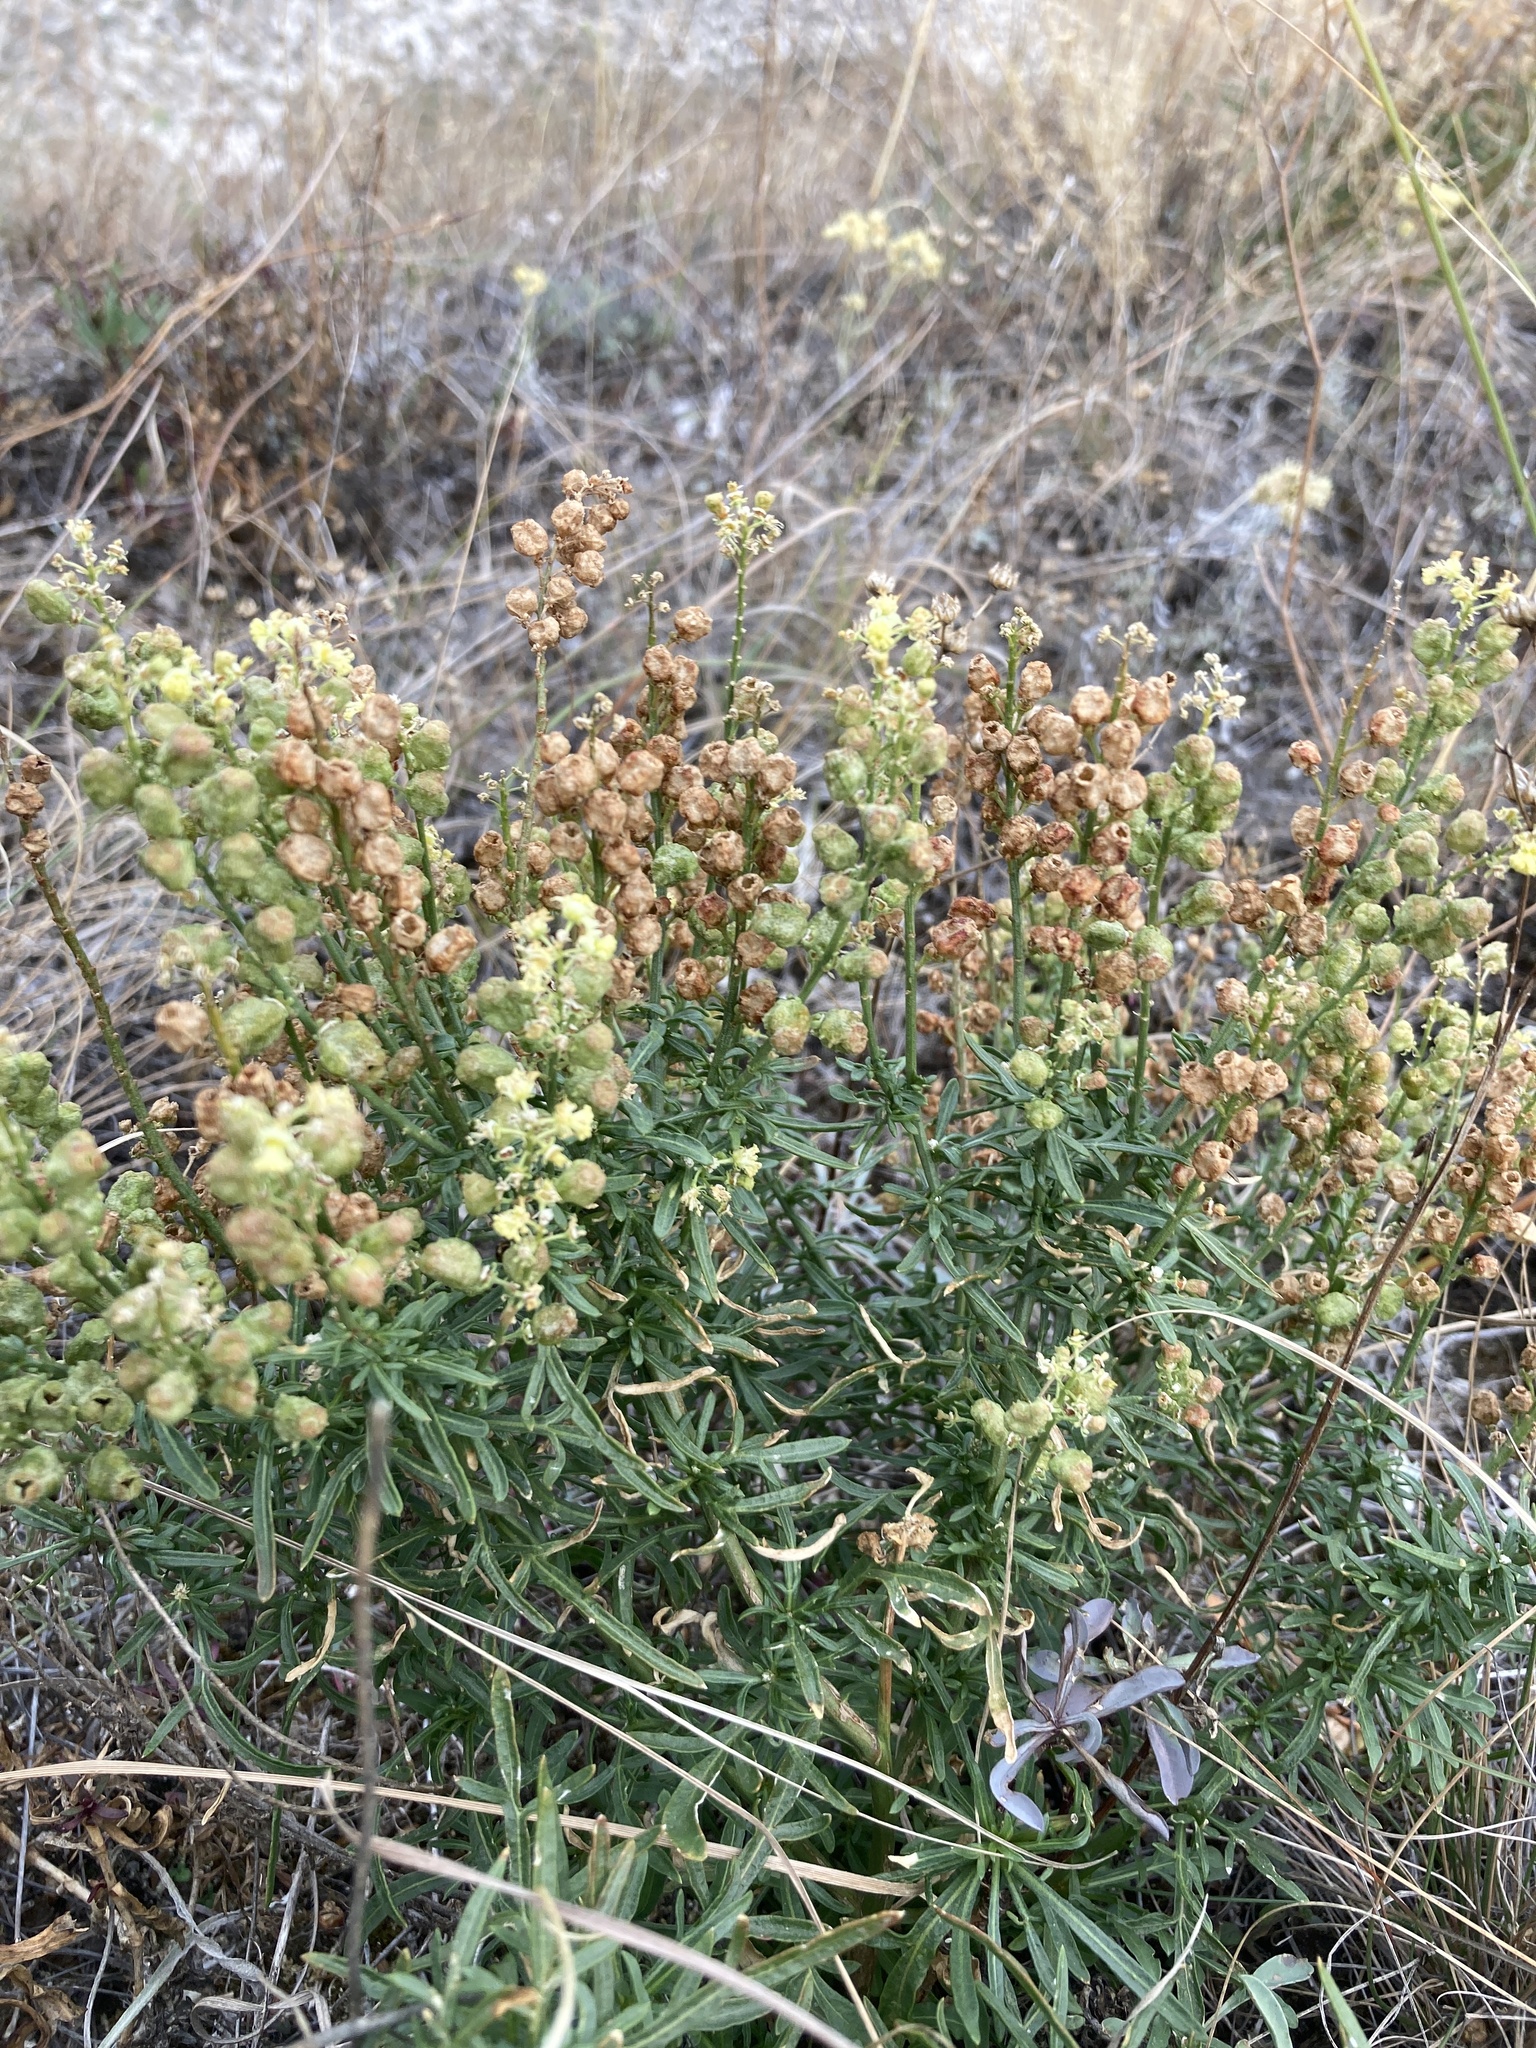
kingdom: Plantae
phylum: Tracheophyta
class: Magnoliopsida
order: Brassicales
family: Resedaceae
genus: Reseda
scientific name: Reseda lutea
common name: Wild mignonette
